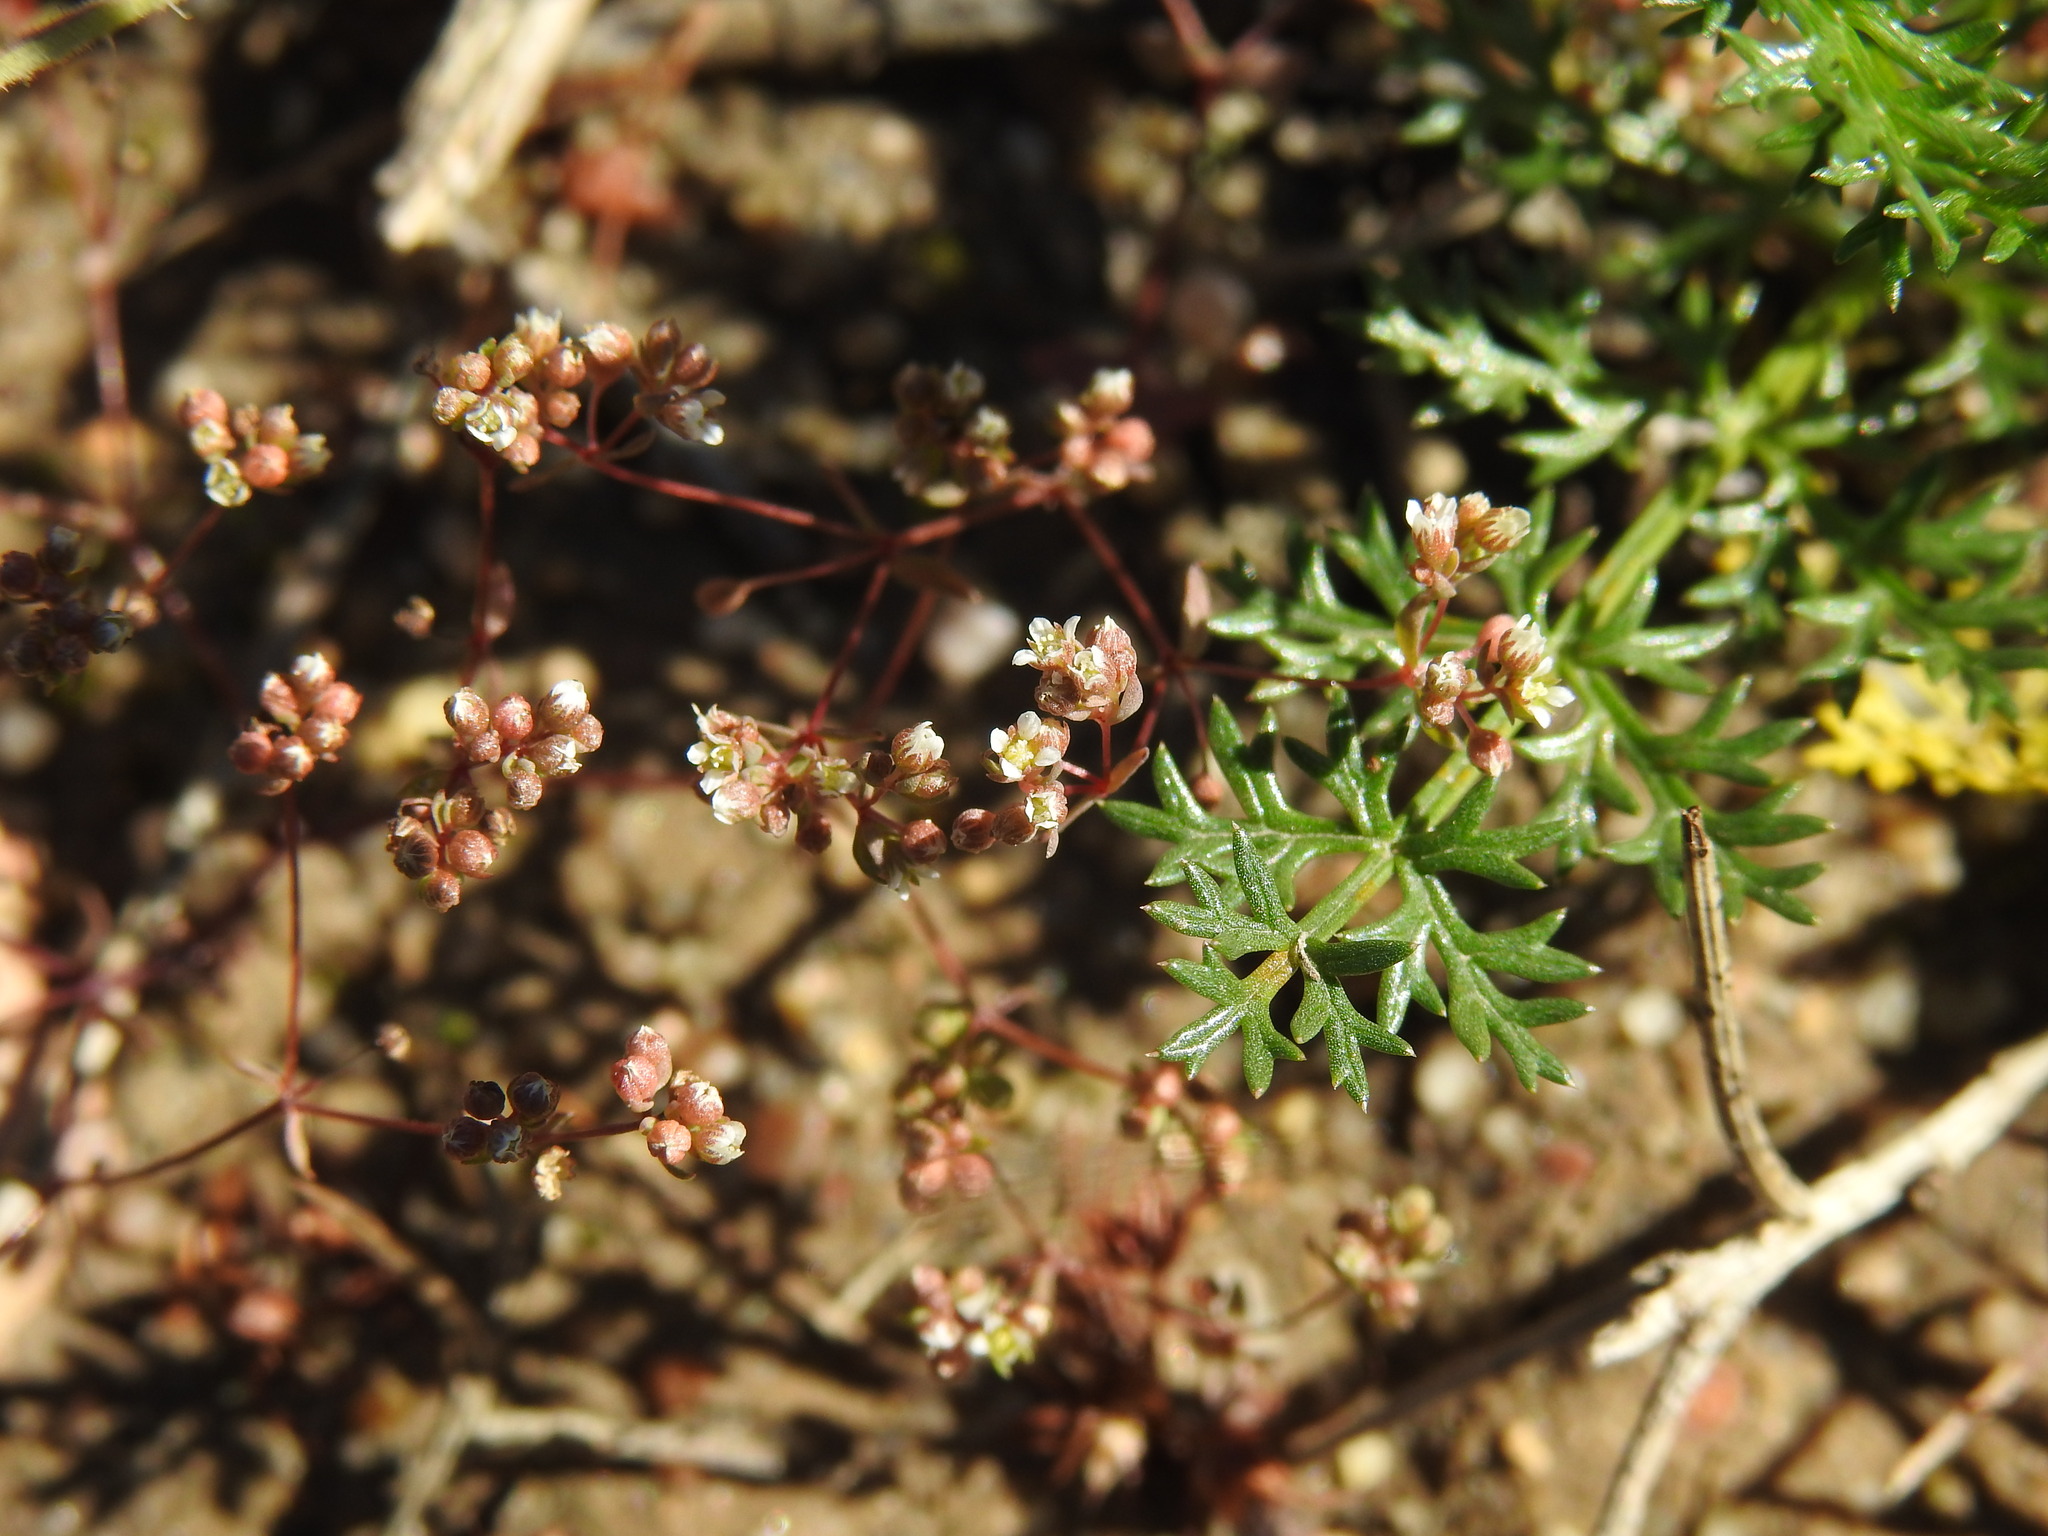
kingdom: Plantae
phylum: Tracheophyta
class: Magnoliopsida
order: Malpighiales
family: Linaceae
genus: Radiola
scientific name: Radiola linoides
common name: Allseed
